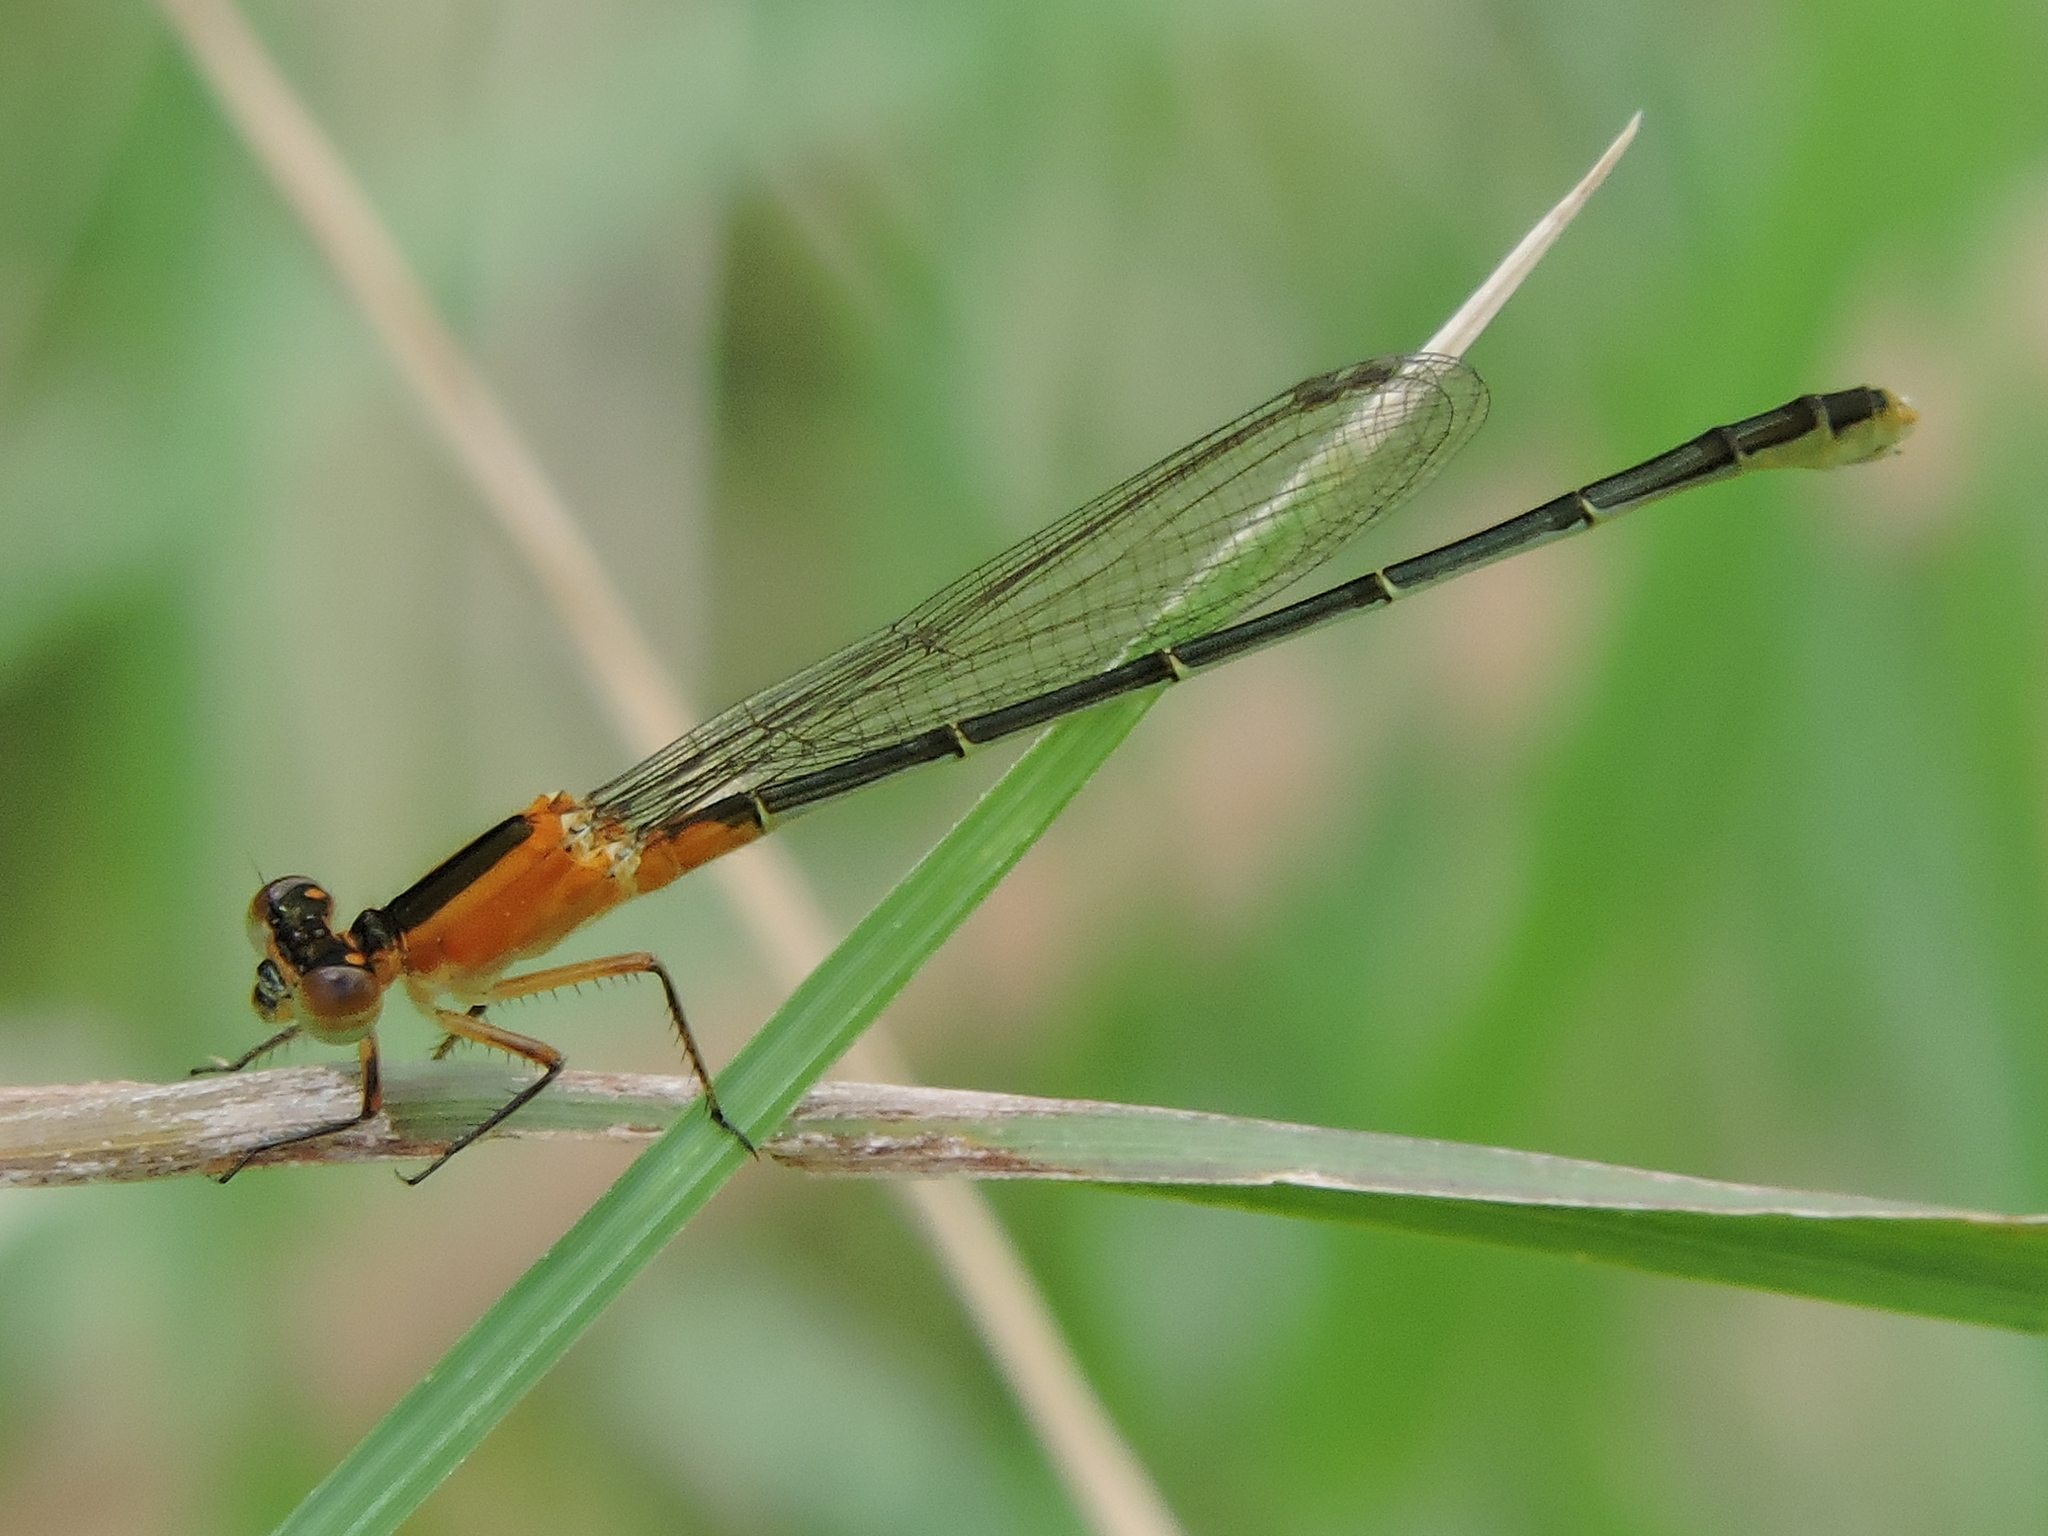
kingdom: Animalia
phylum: Arthropoda
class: Insecta
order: Odonata
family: Coenagrionidae
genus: Ischnura
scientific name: Ischnura ramburii
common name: Rambur's forktail
